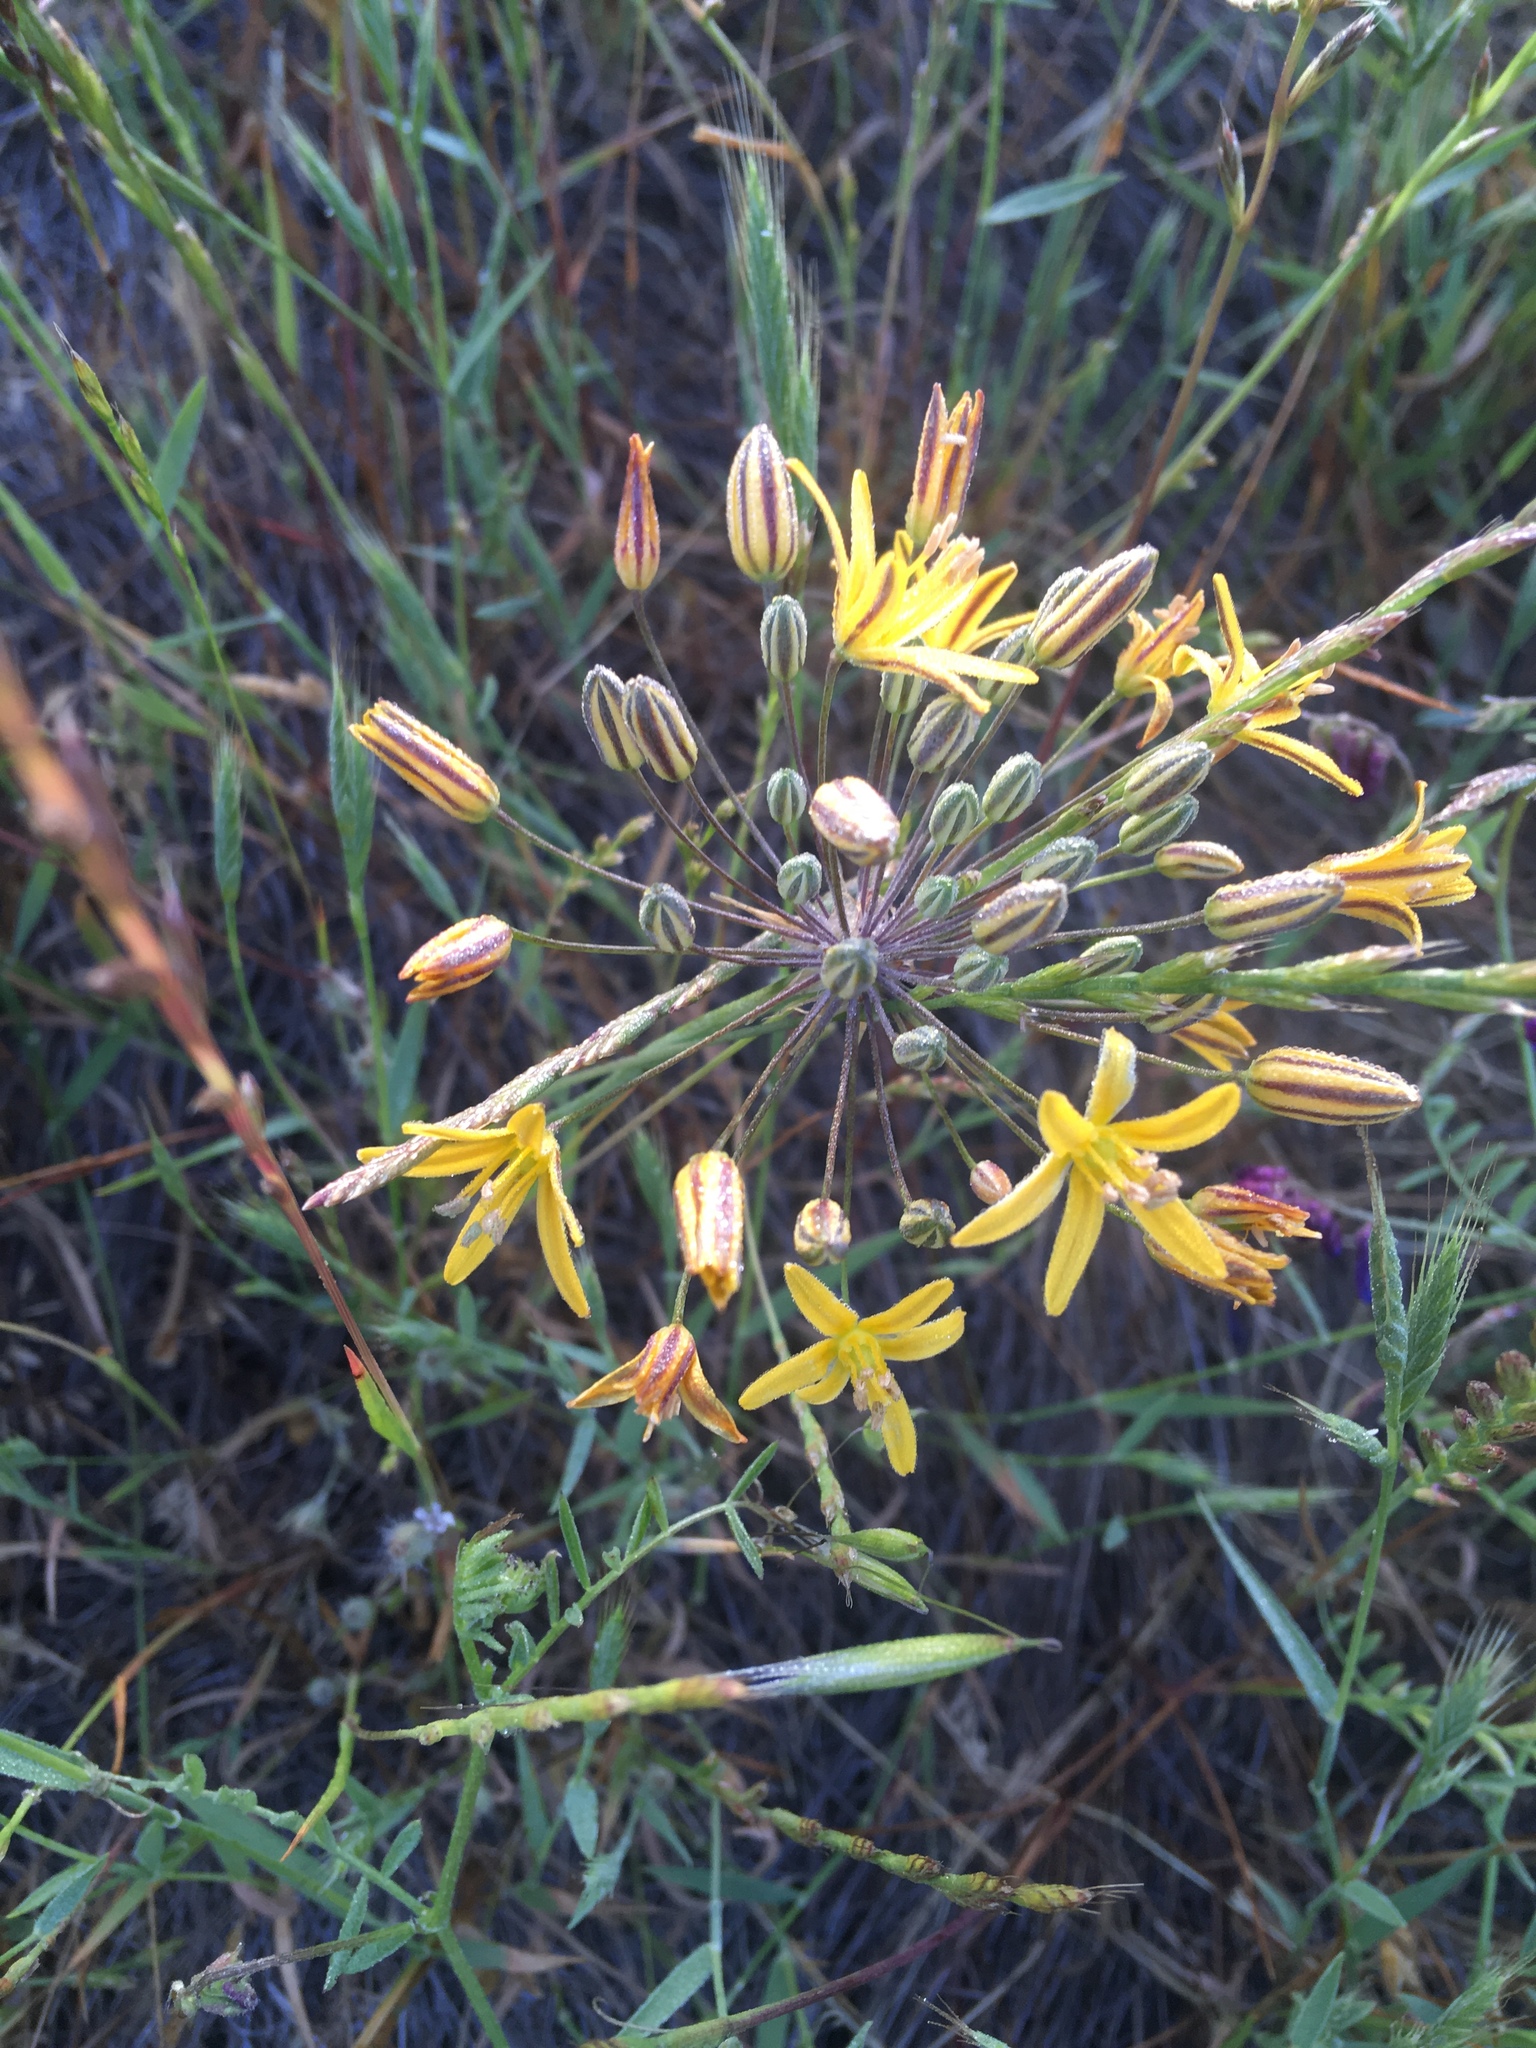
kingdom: Plantae
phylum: Tracheophyta
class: Liliopsida
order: Asparagales
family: Asparagaceae
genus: Bloomeria
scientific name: Bloomeria crocea
